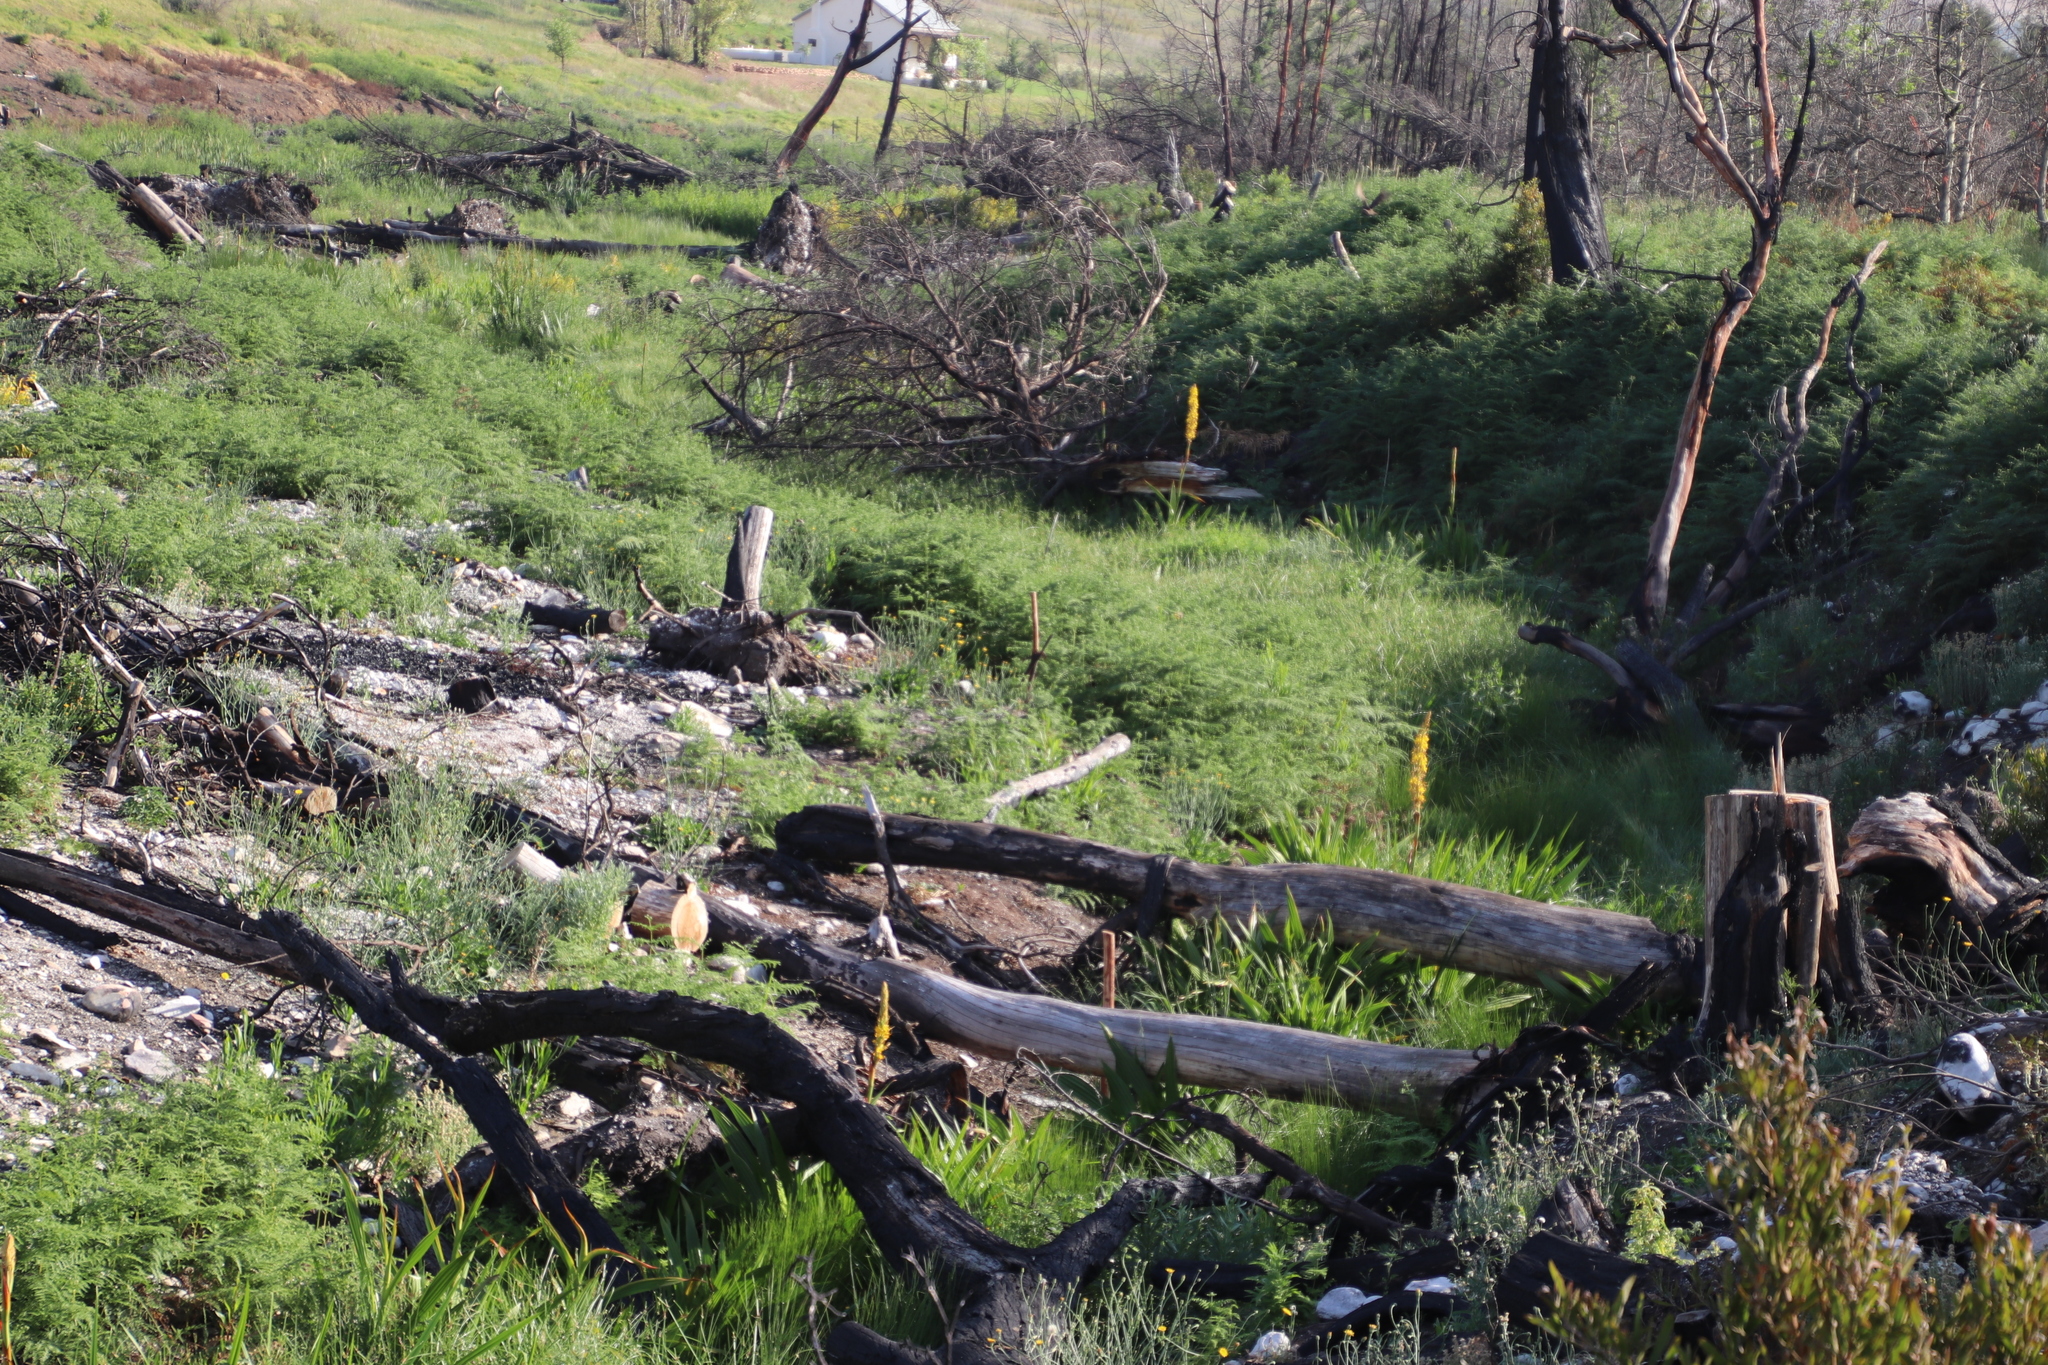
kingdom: Plantae
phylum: Tracheophyta
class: Liliopsida
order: Commelinales
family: Haemodoraceae
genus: Wachendorfia
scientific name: Wachendorfia thyrsiflora
